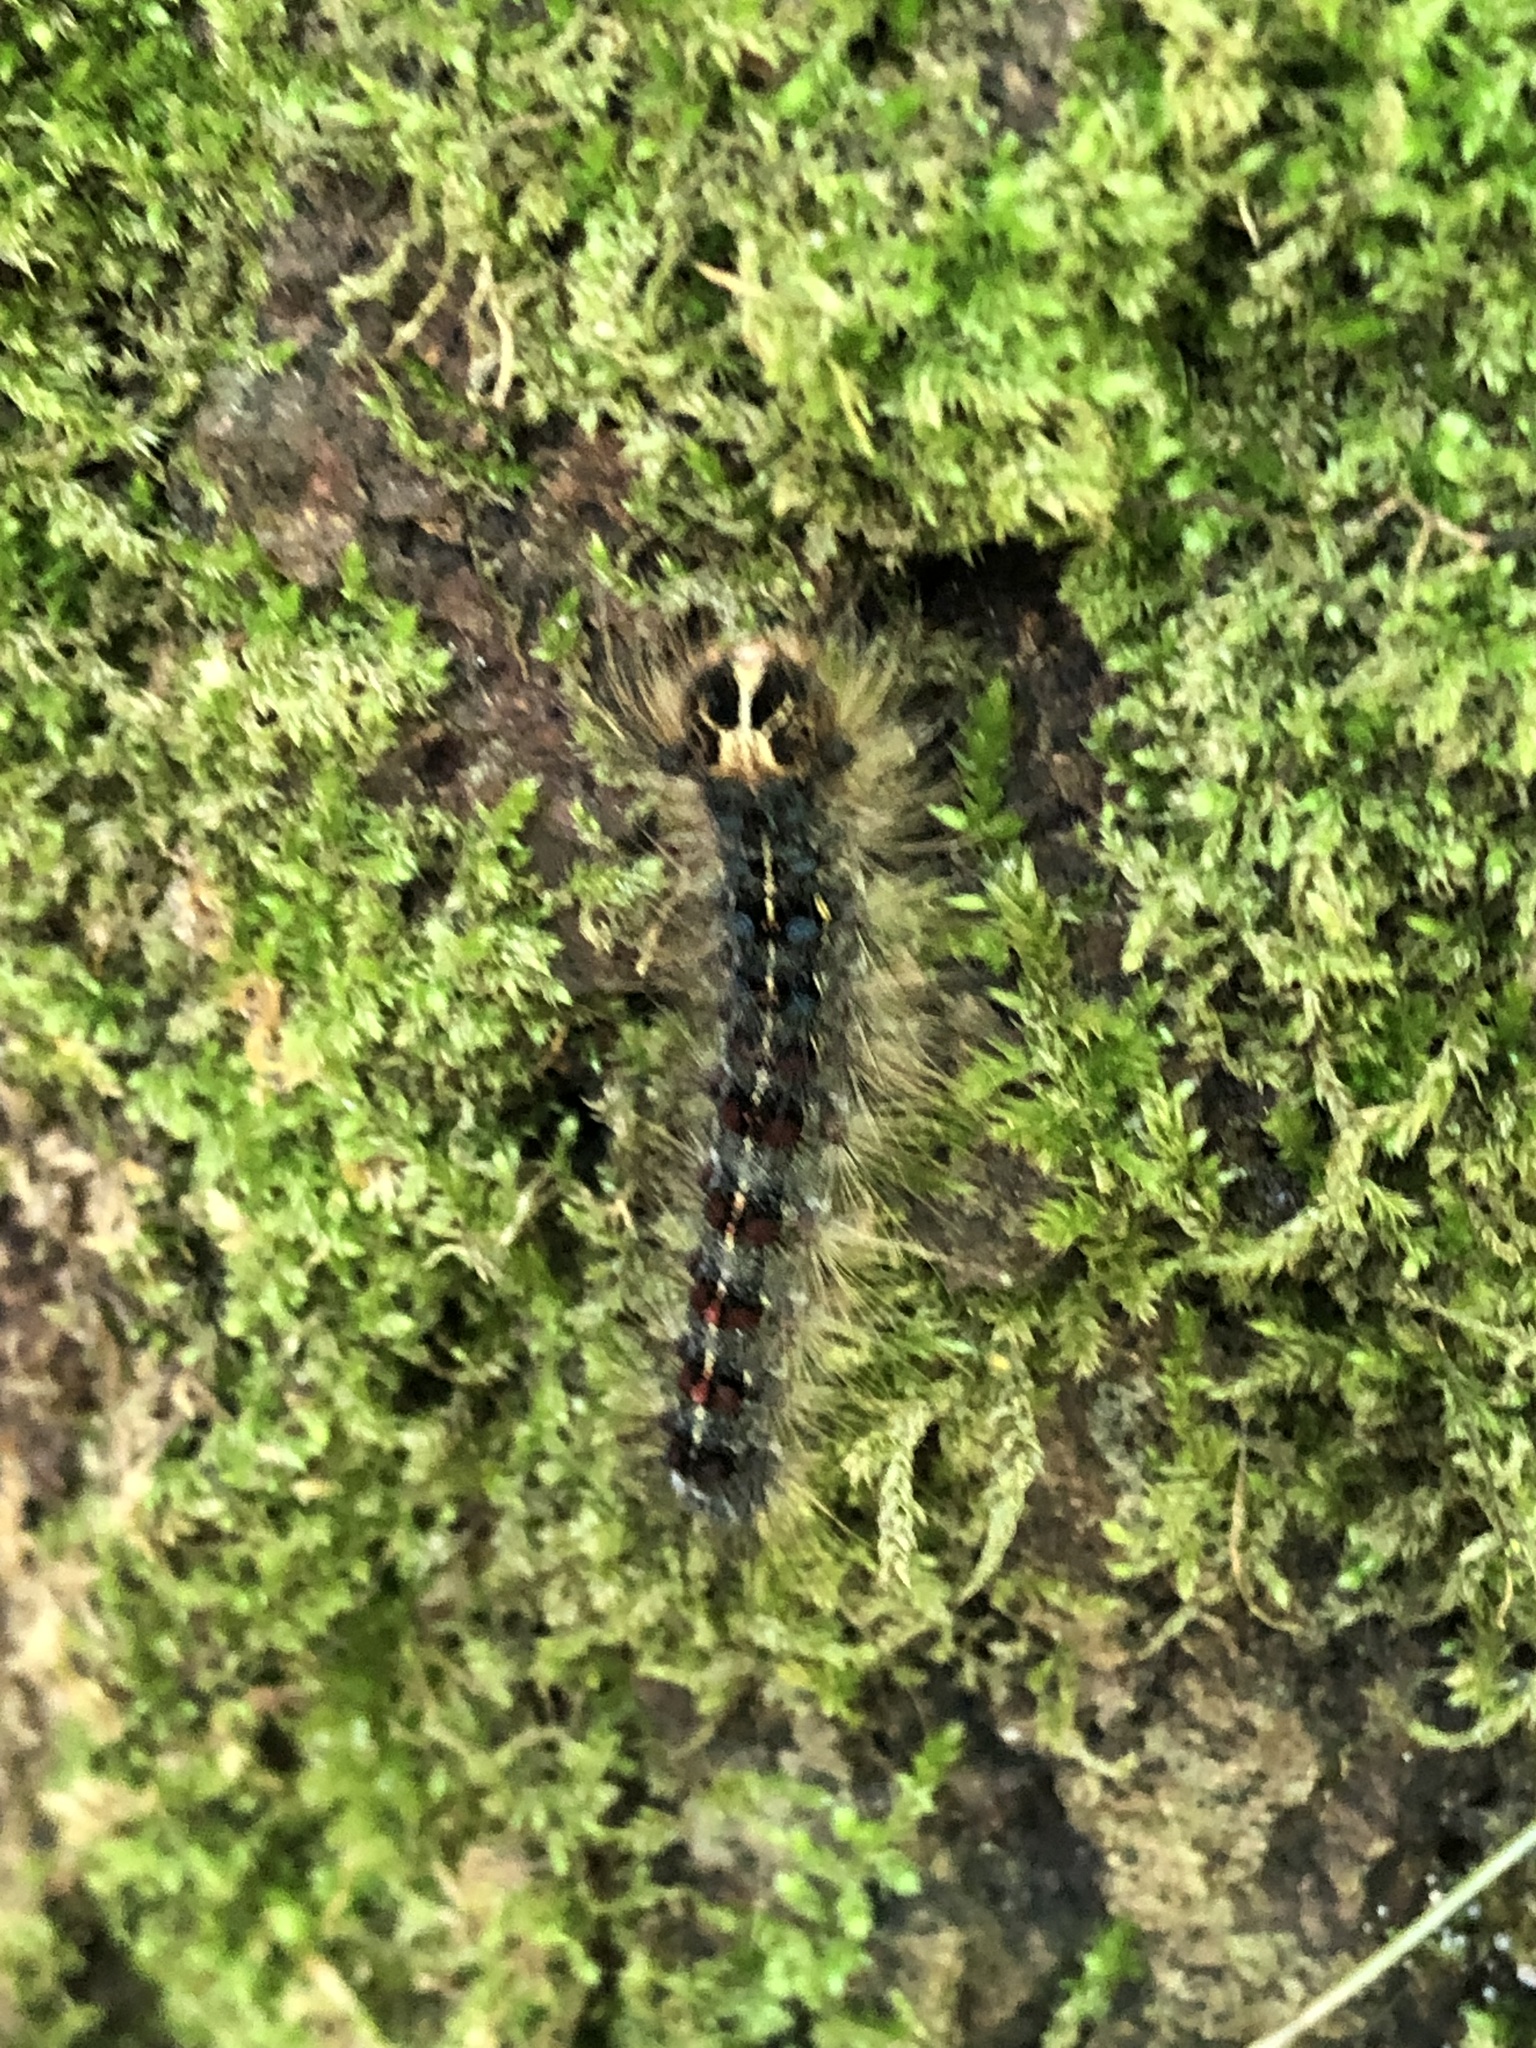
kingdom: Animalia
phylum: Arthropoda
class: Insecta
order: Lepidoptera
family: Erebidae
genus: Lymantria
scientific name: Lymantria dispar
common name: Gypsy moth
